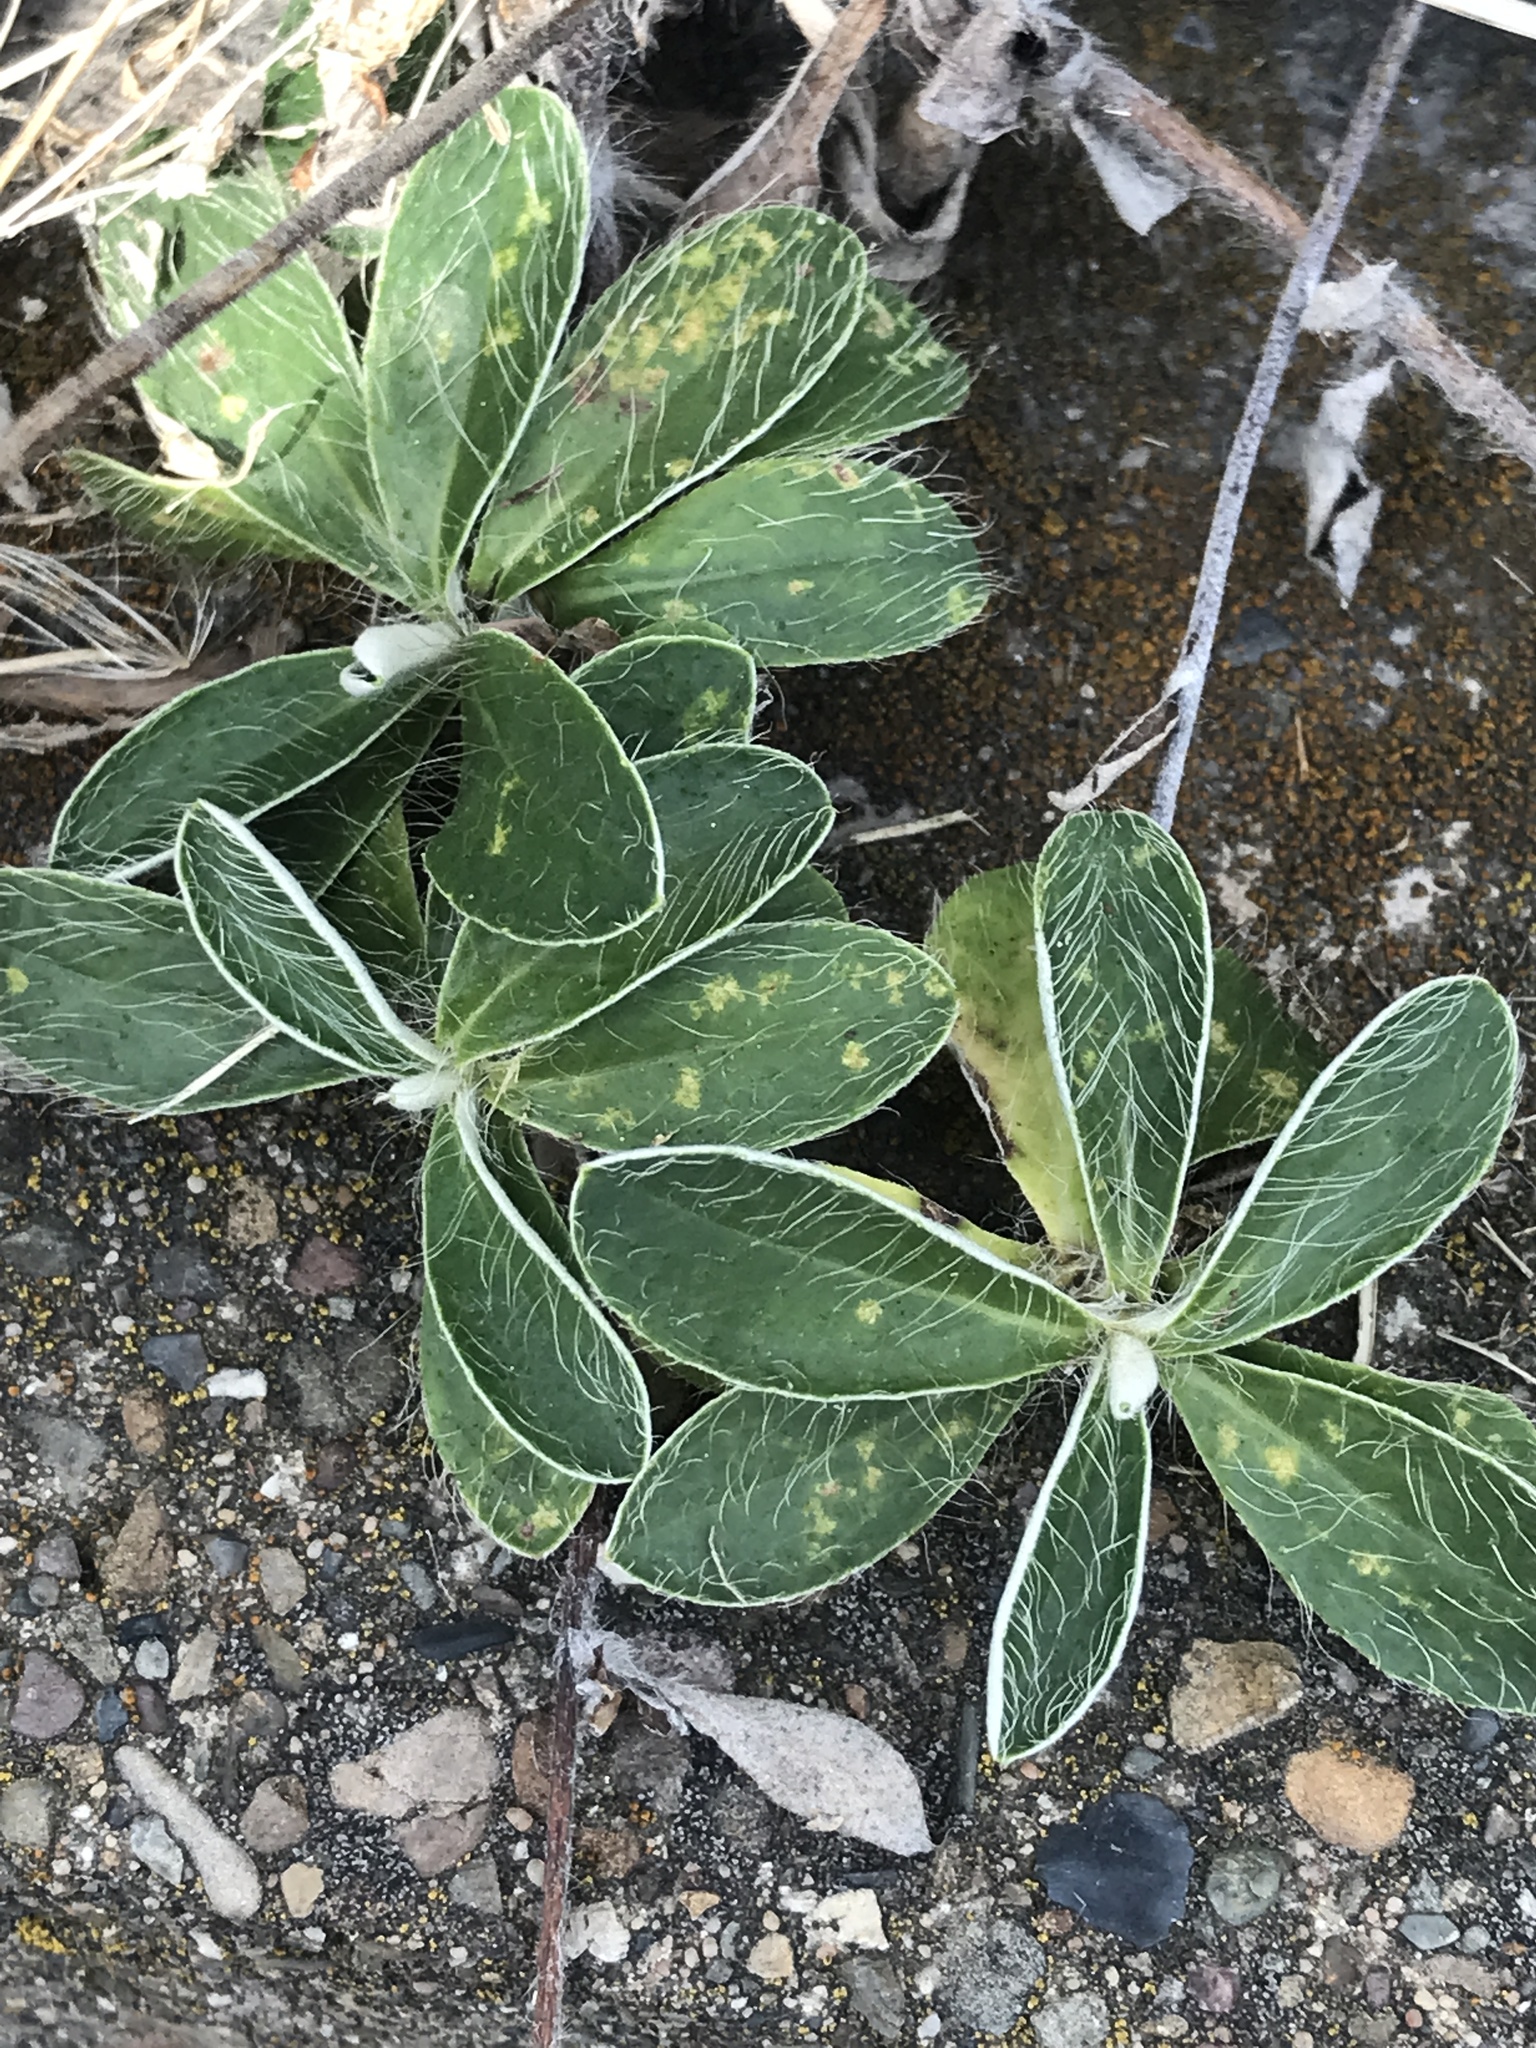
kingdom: Plantae
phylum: Tracheophyta
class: Magnoliopsida
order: Asterales
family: Asteraceae
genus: Pilosella
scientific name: Pilosella officinarum
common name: Mouse-ear hawkweed
